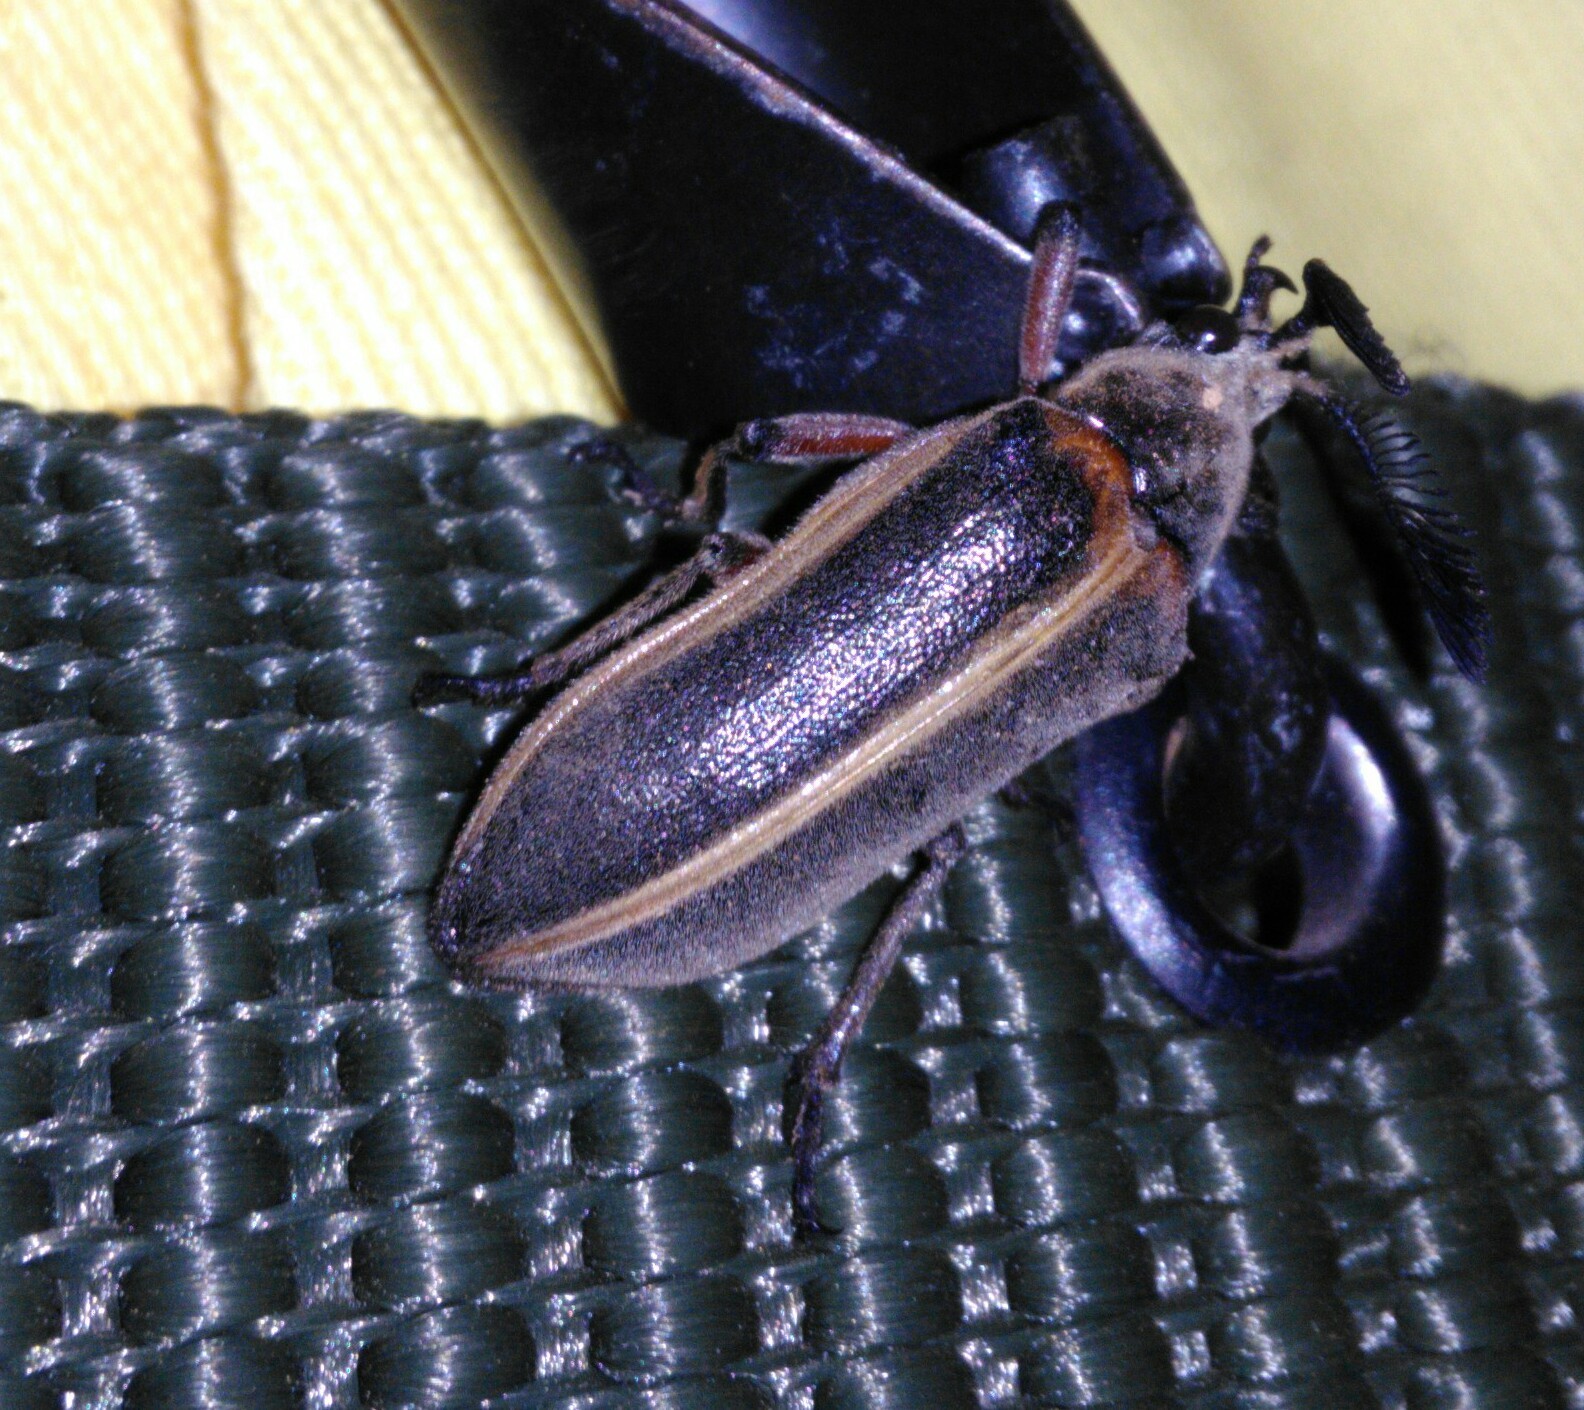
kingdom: Animalia
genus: Polytomus
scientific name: Polytomus
